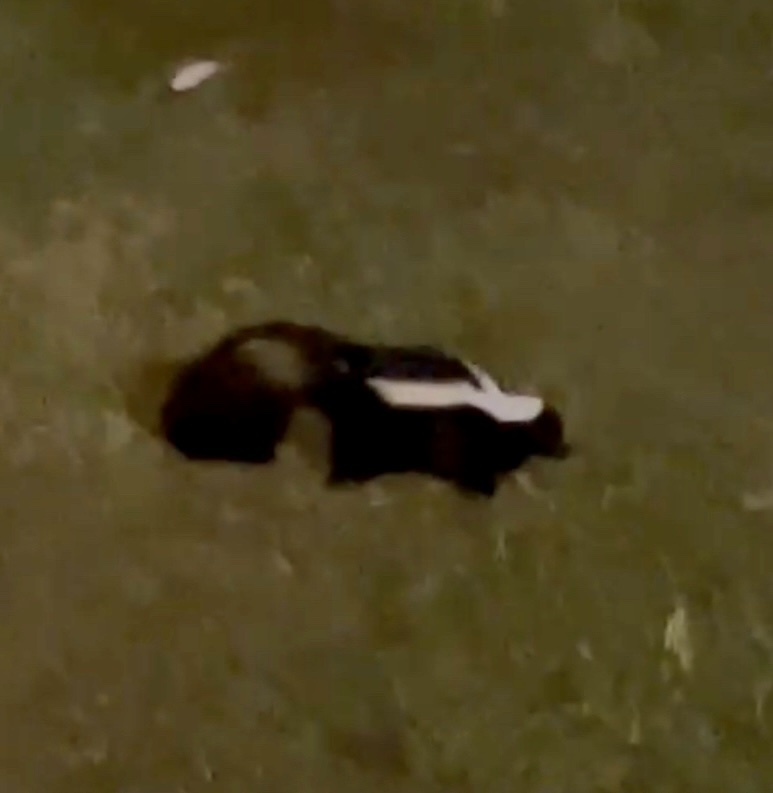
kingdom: Animalia
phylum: Chordata
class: Mammalia
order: Carnivora
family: Mephitidae
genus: Mephitis
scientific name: Mephitis mephitis
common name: Striped skunk
